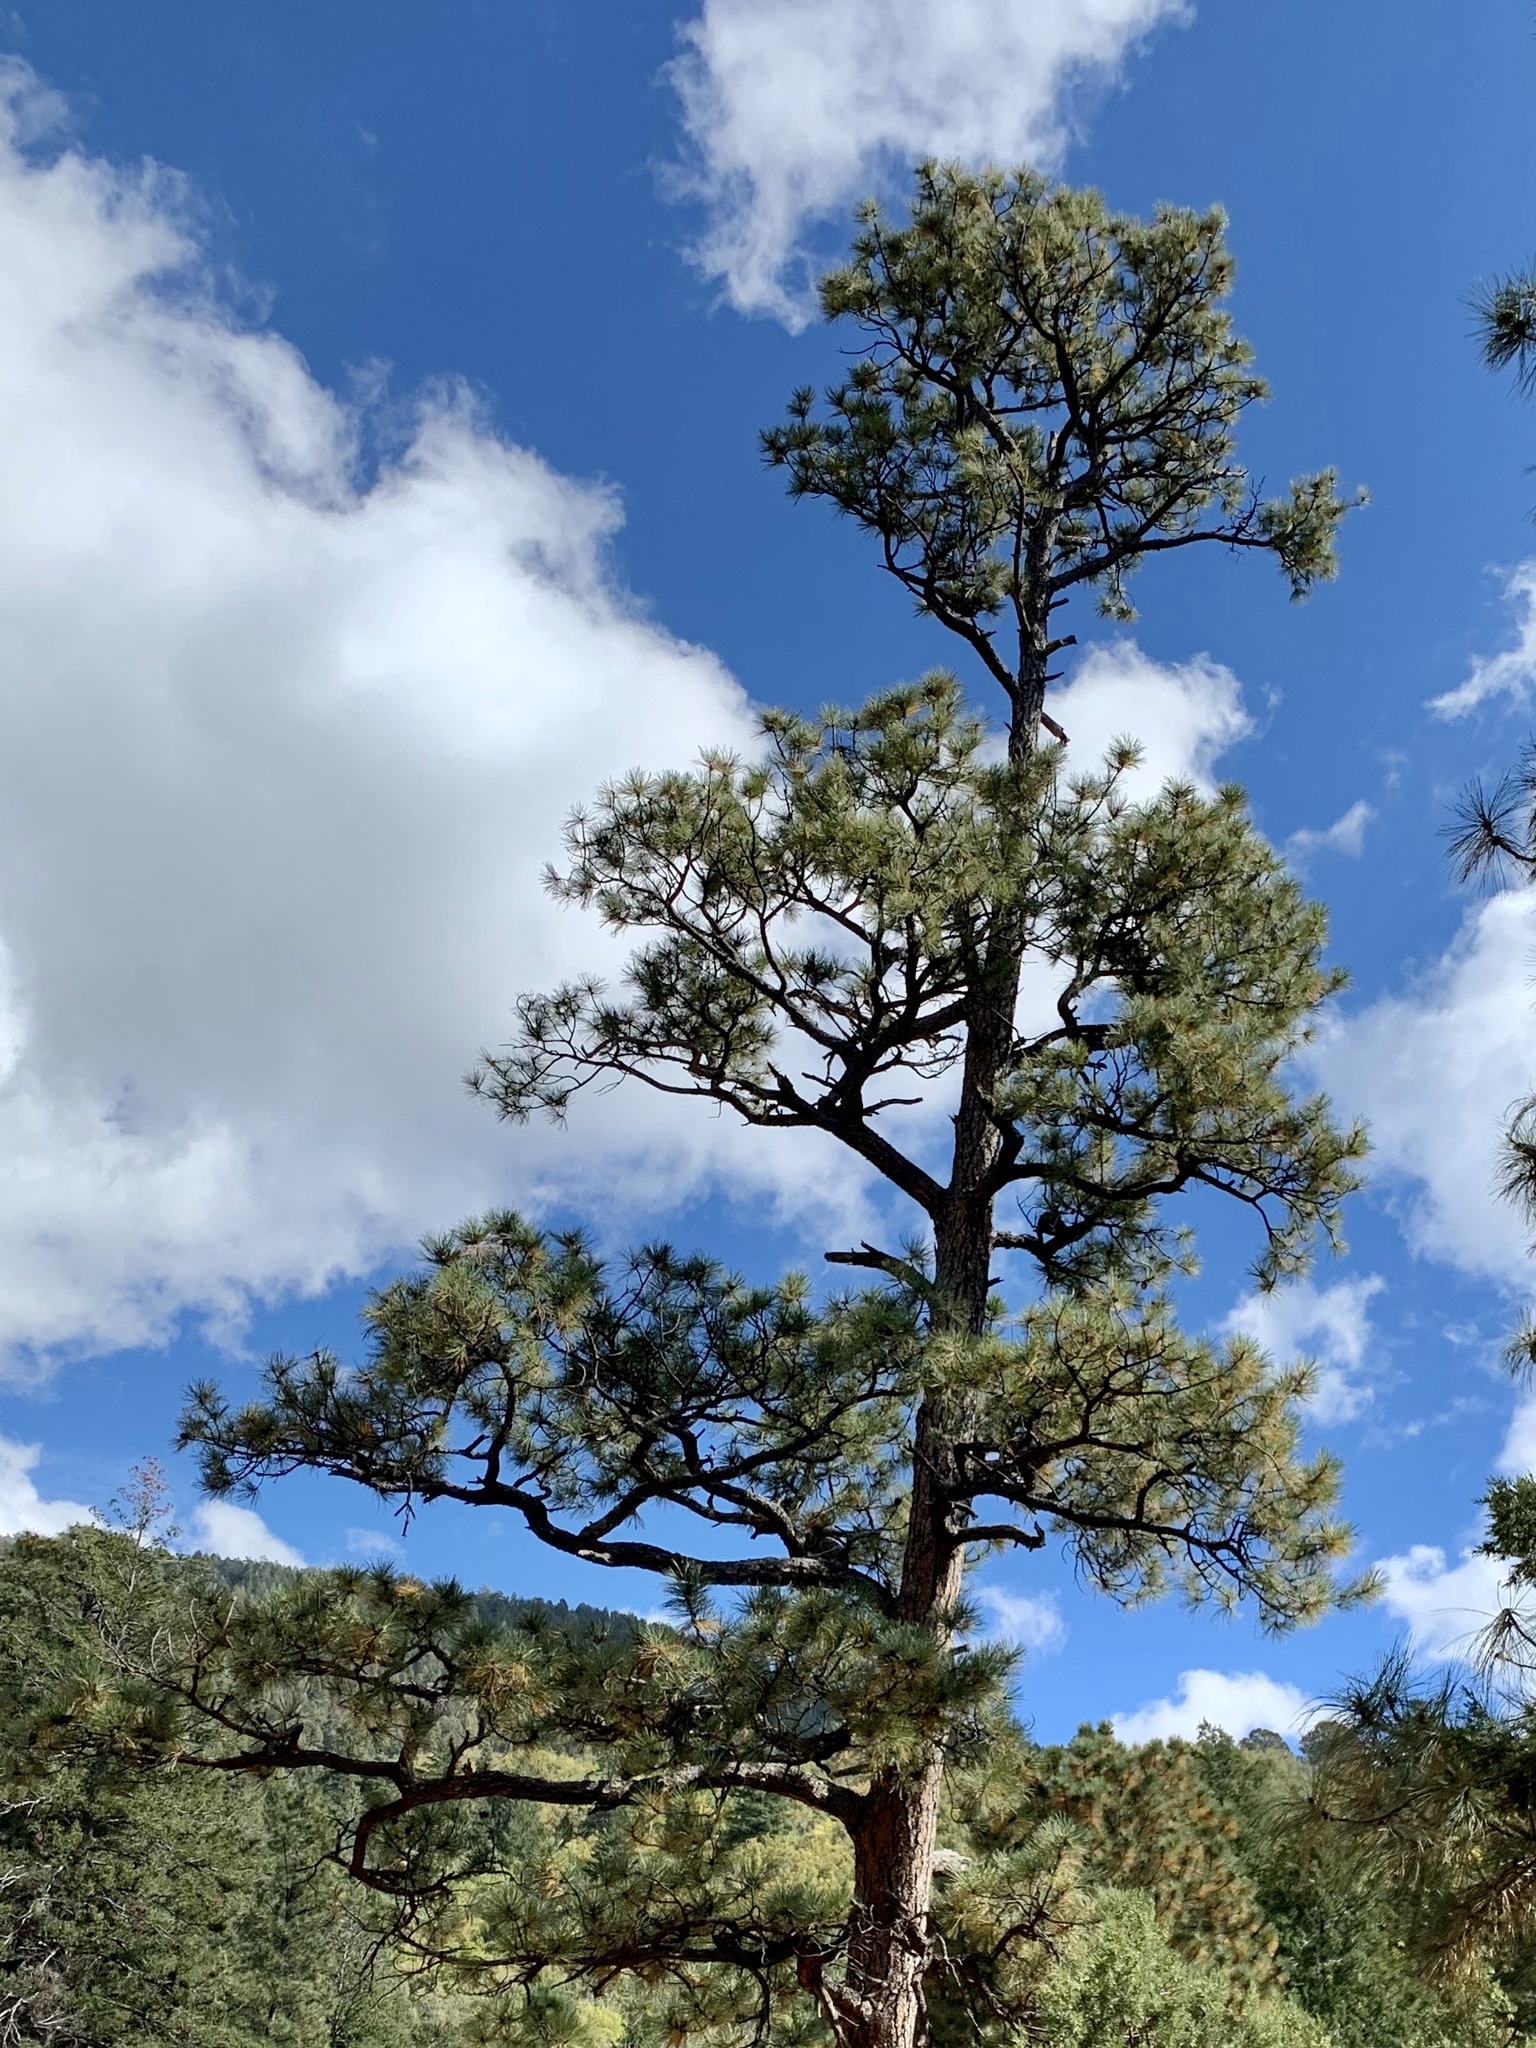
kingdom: Plantae
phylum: Tracheophyta
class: Pinopsida
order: Pinales
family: Pinaceae
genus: Pinus
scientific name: Pinus ponderosa
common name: Western yellow-pine
